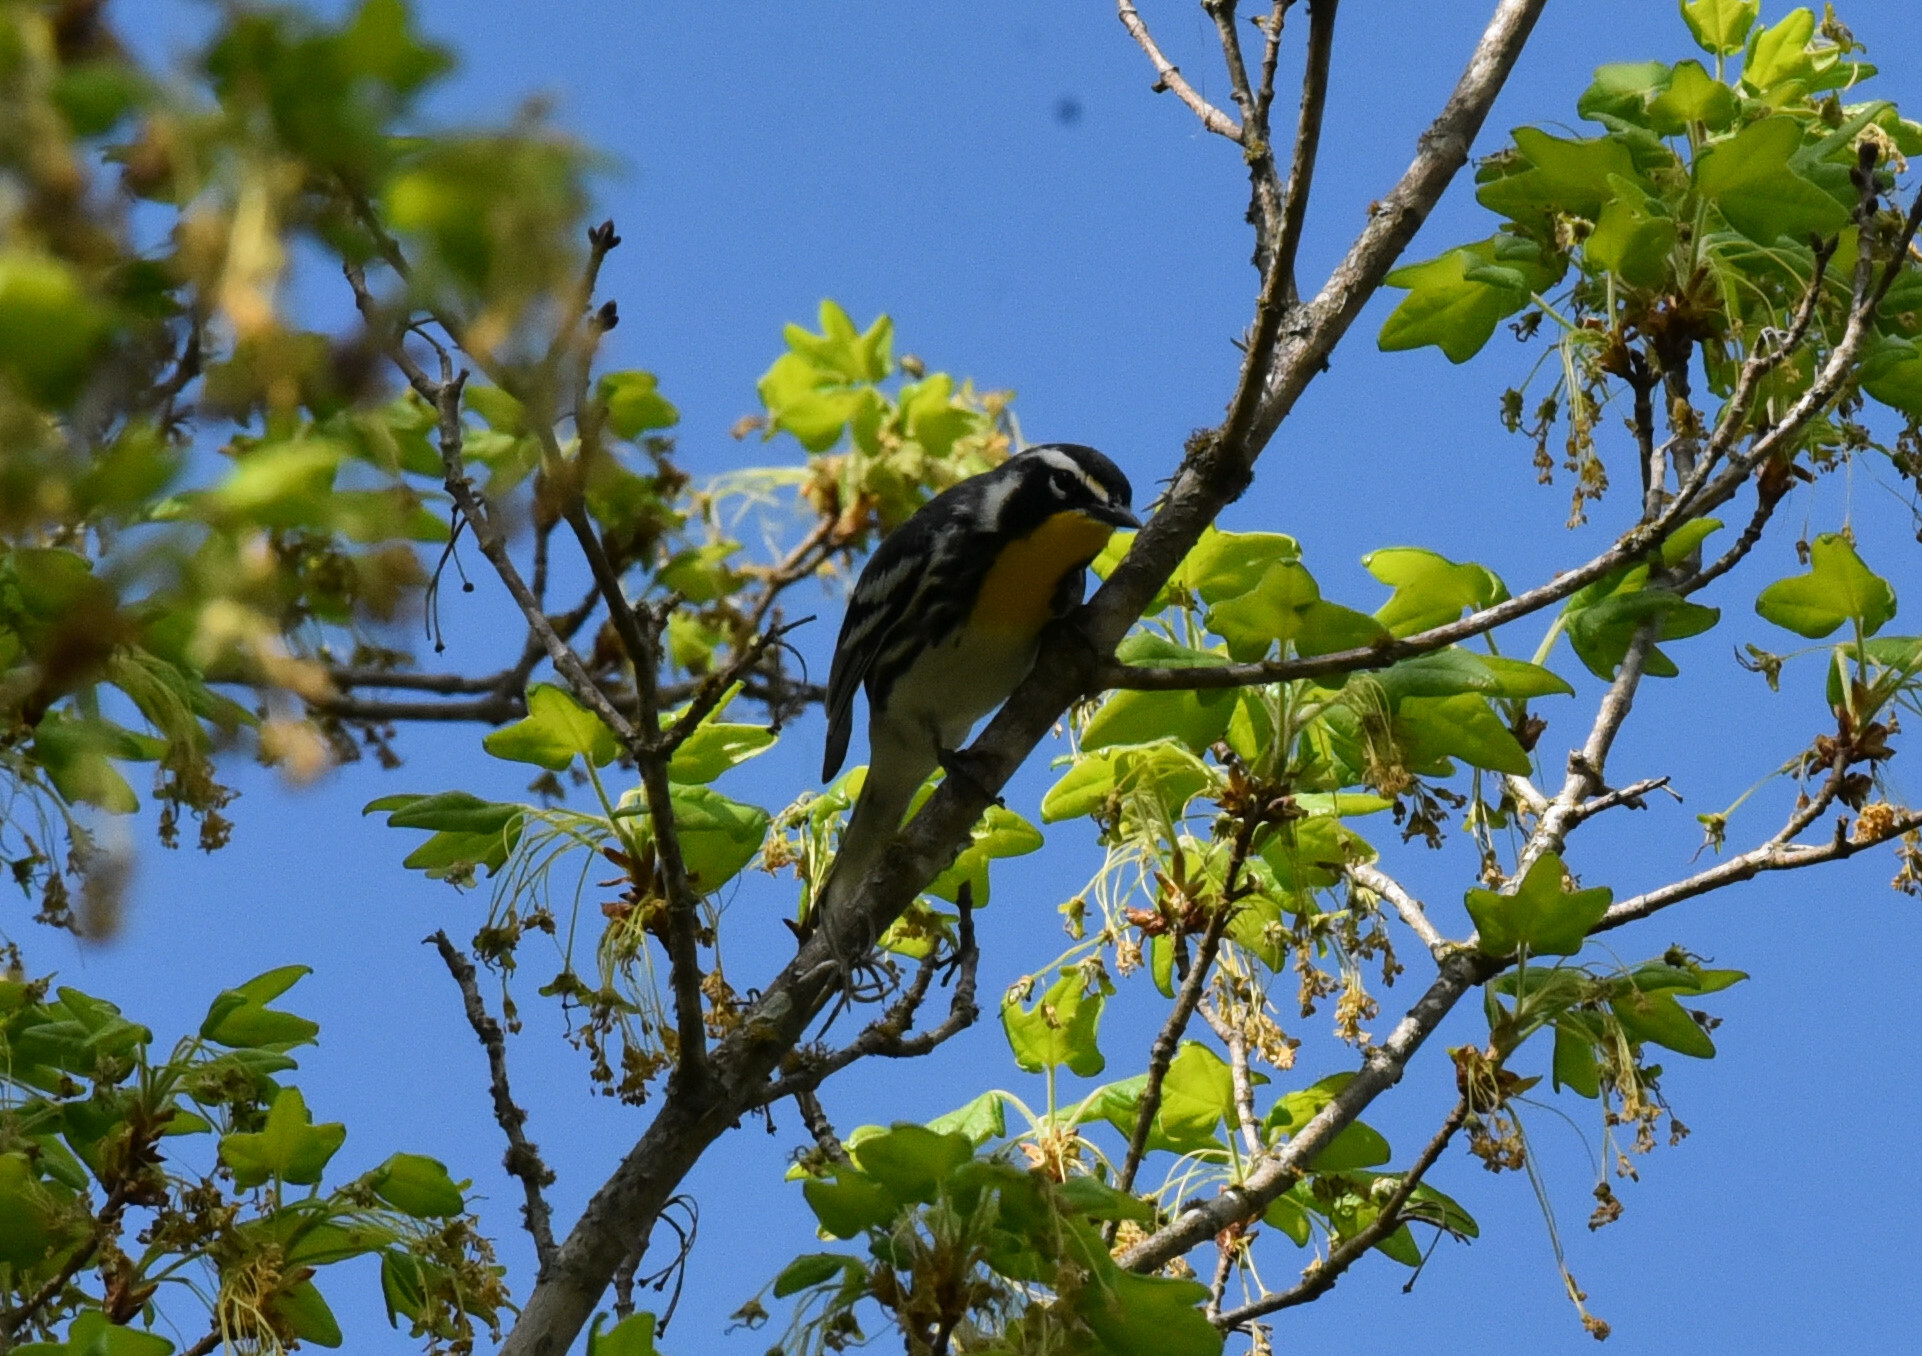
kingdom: Animalia
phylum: Chordata
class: Aves
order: Passeriformes
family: Parulidae
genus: Setophaga
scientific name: Setophaga dominica
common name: Yellow-throated warbler
